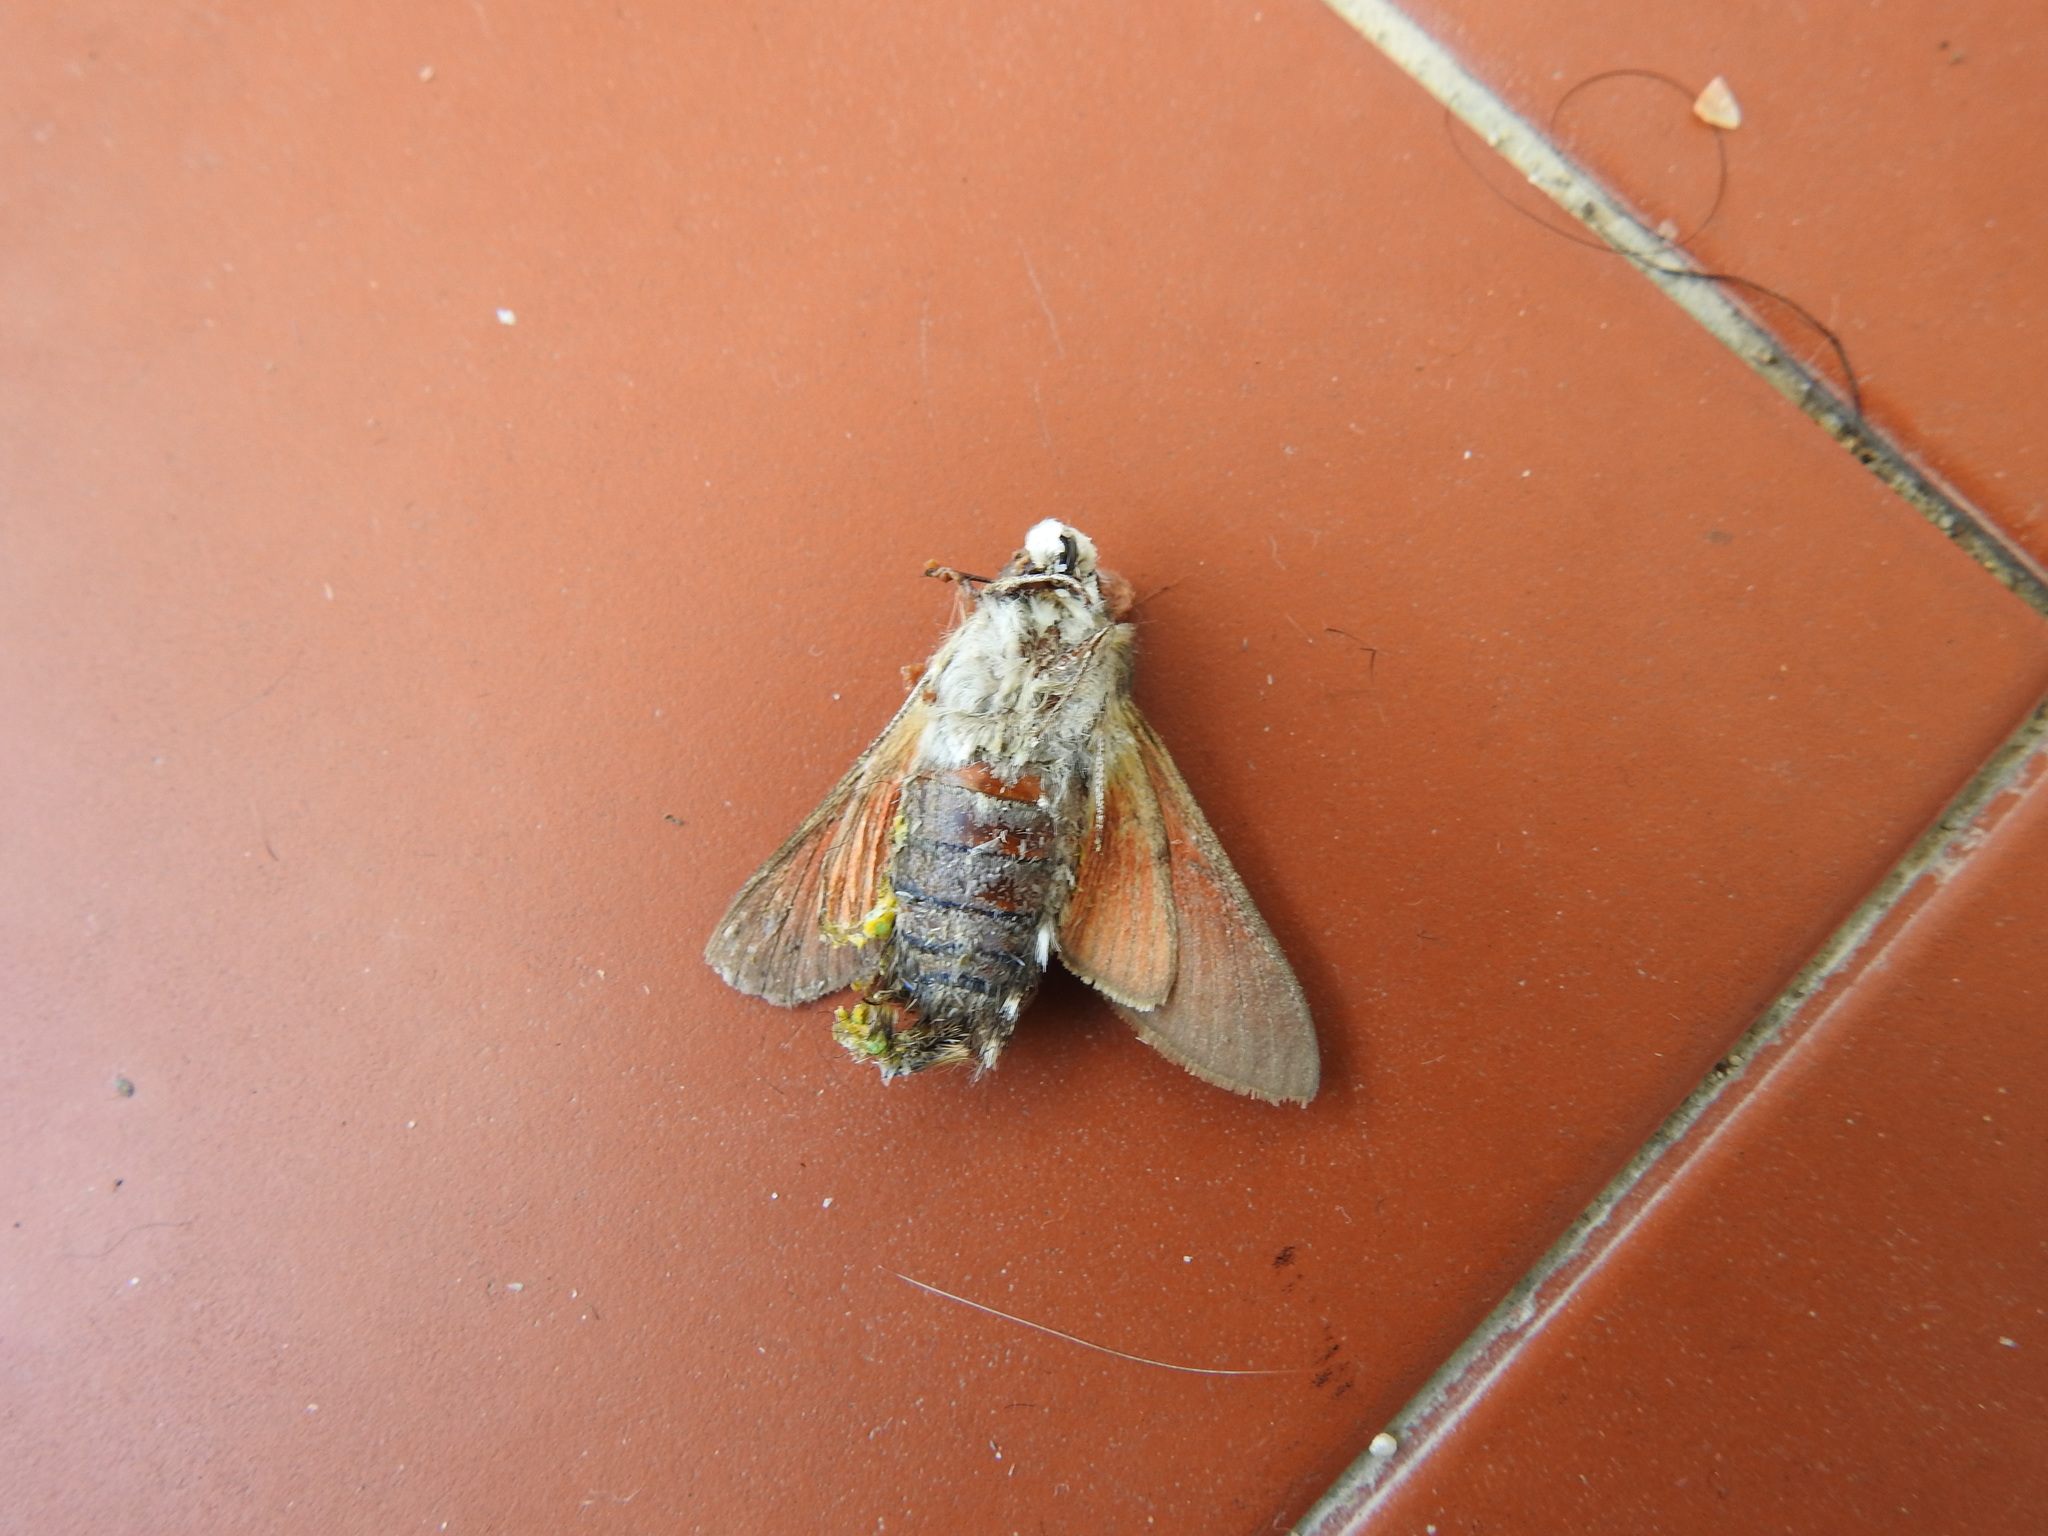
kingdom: Animalia
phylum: Arthropoda
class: Insecta
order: Lepidoptera
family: Sphingidae
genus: Macroglossum
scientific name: Macroglossum stellatarum
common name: Humming-bird hawk-moth
